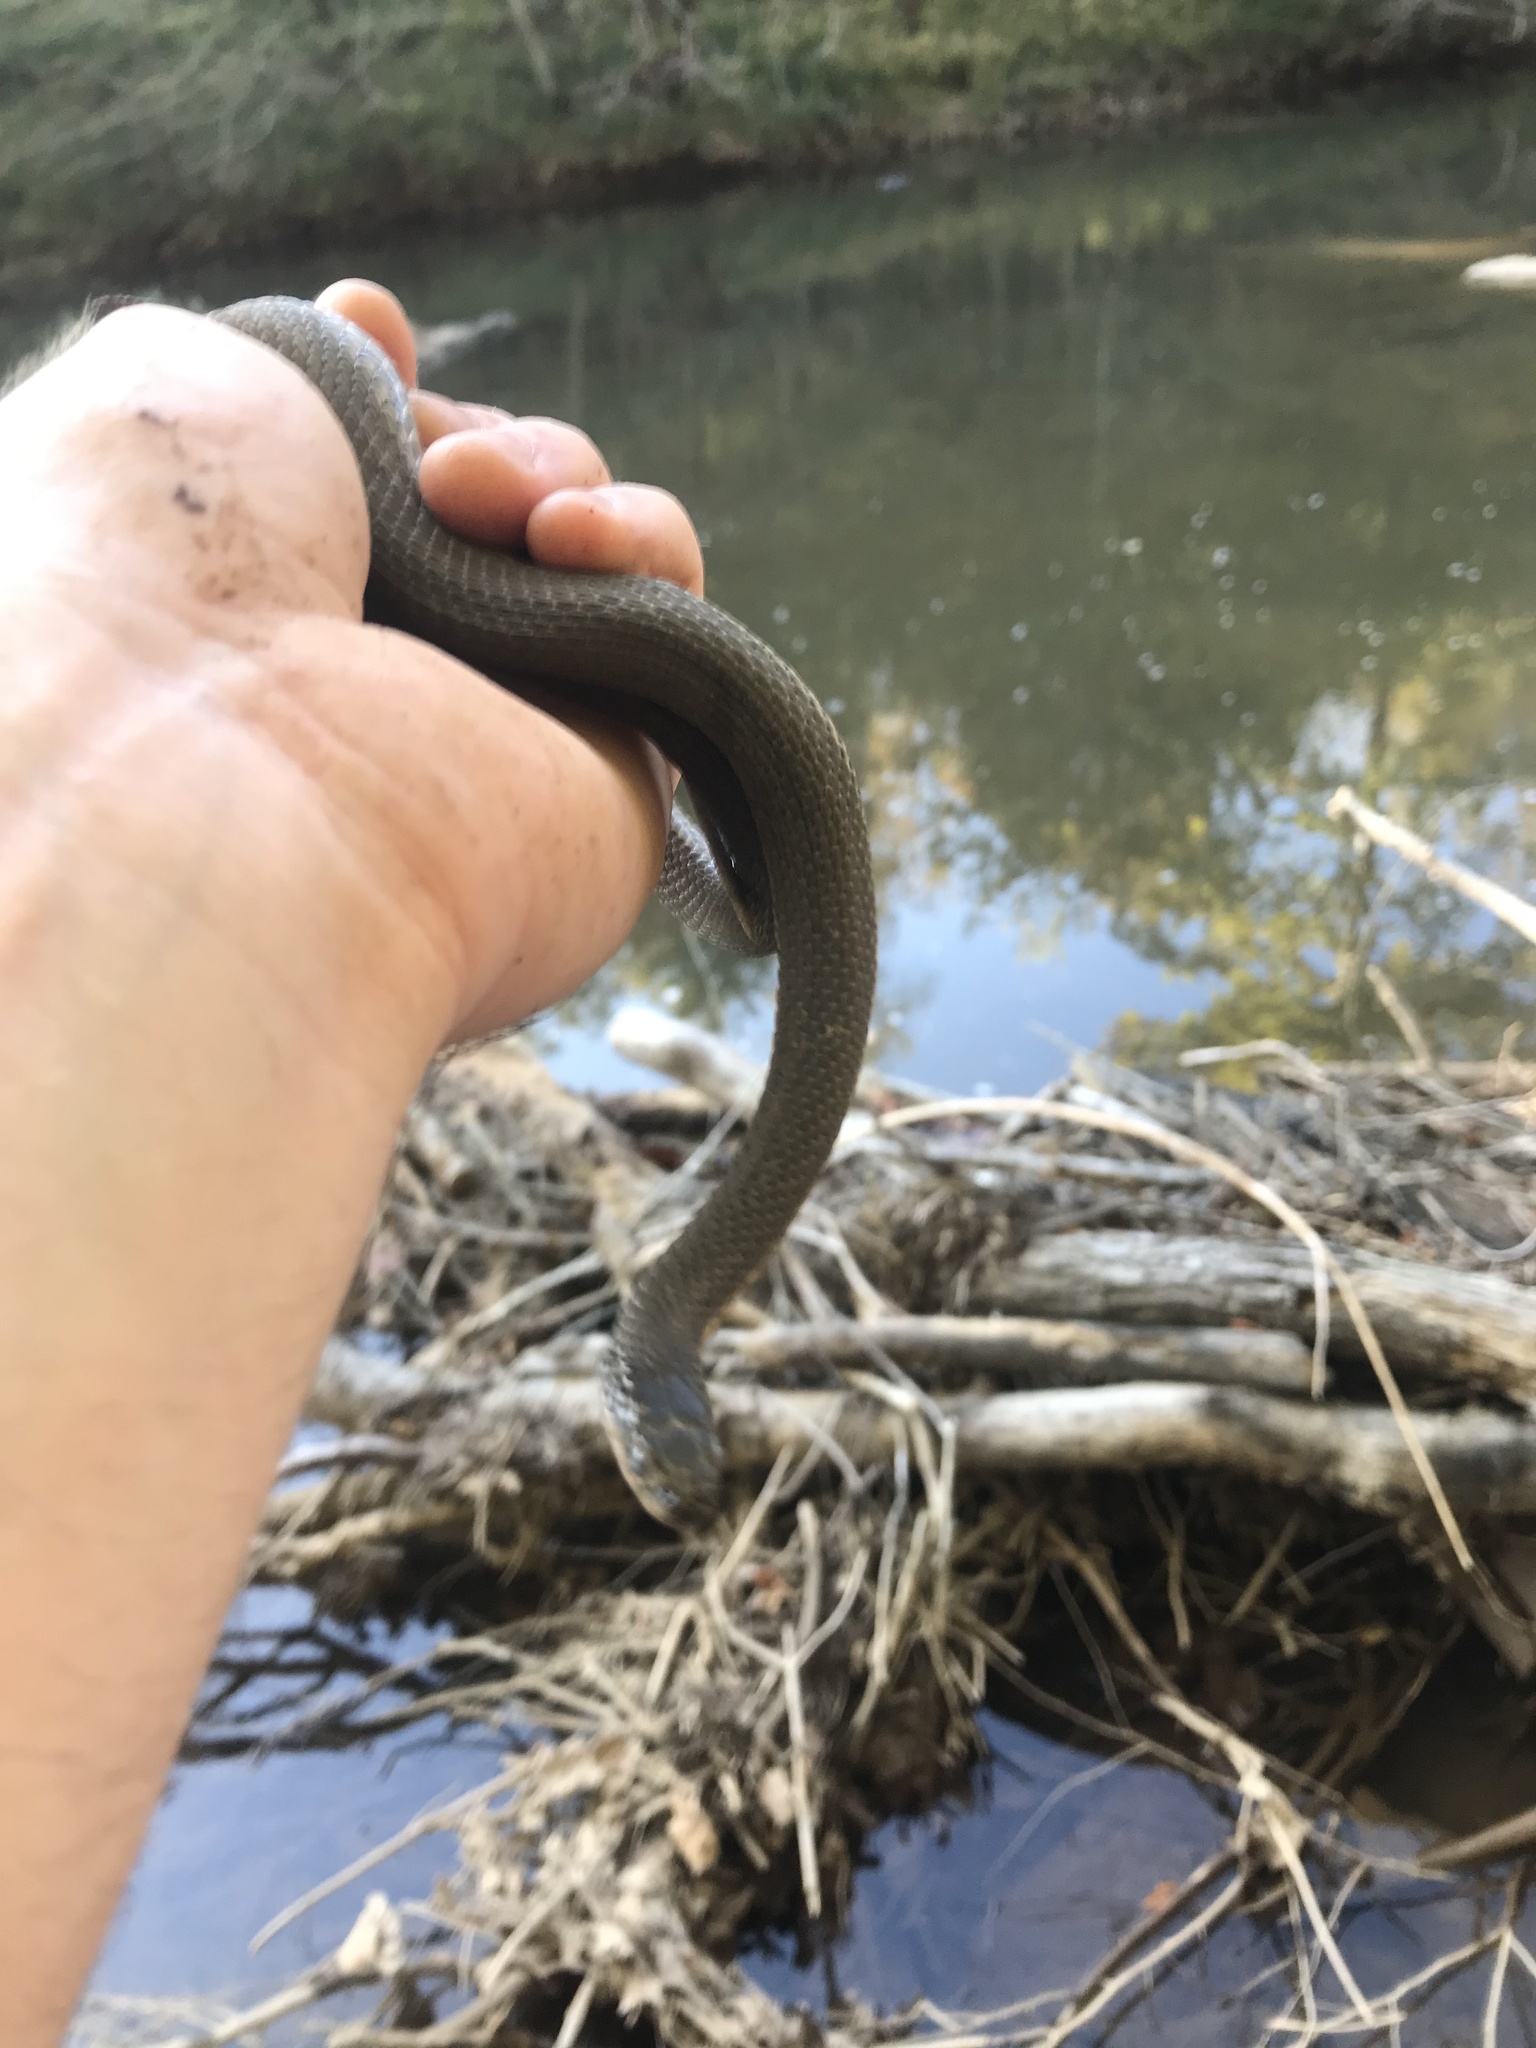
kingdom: Animalia
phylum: Chordata
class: Squamata
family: Colubridae
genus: Regina
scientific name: Regina septemvittata
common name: Queen snake
